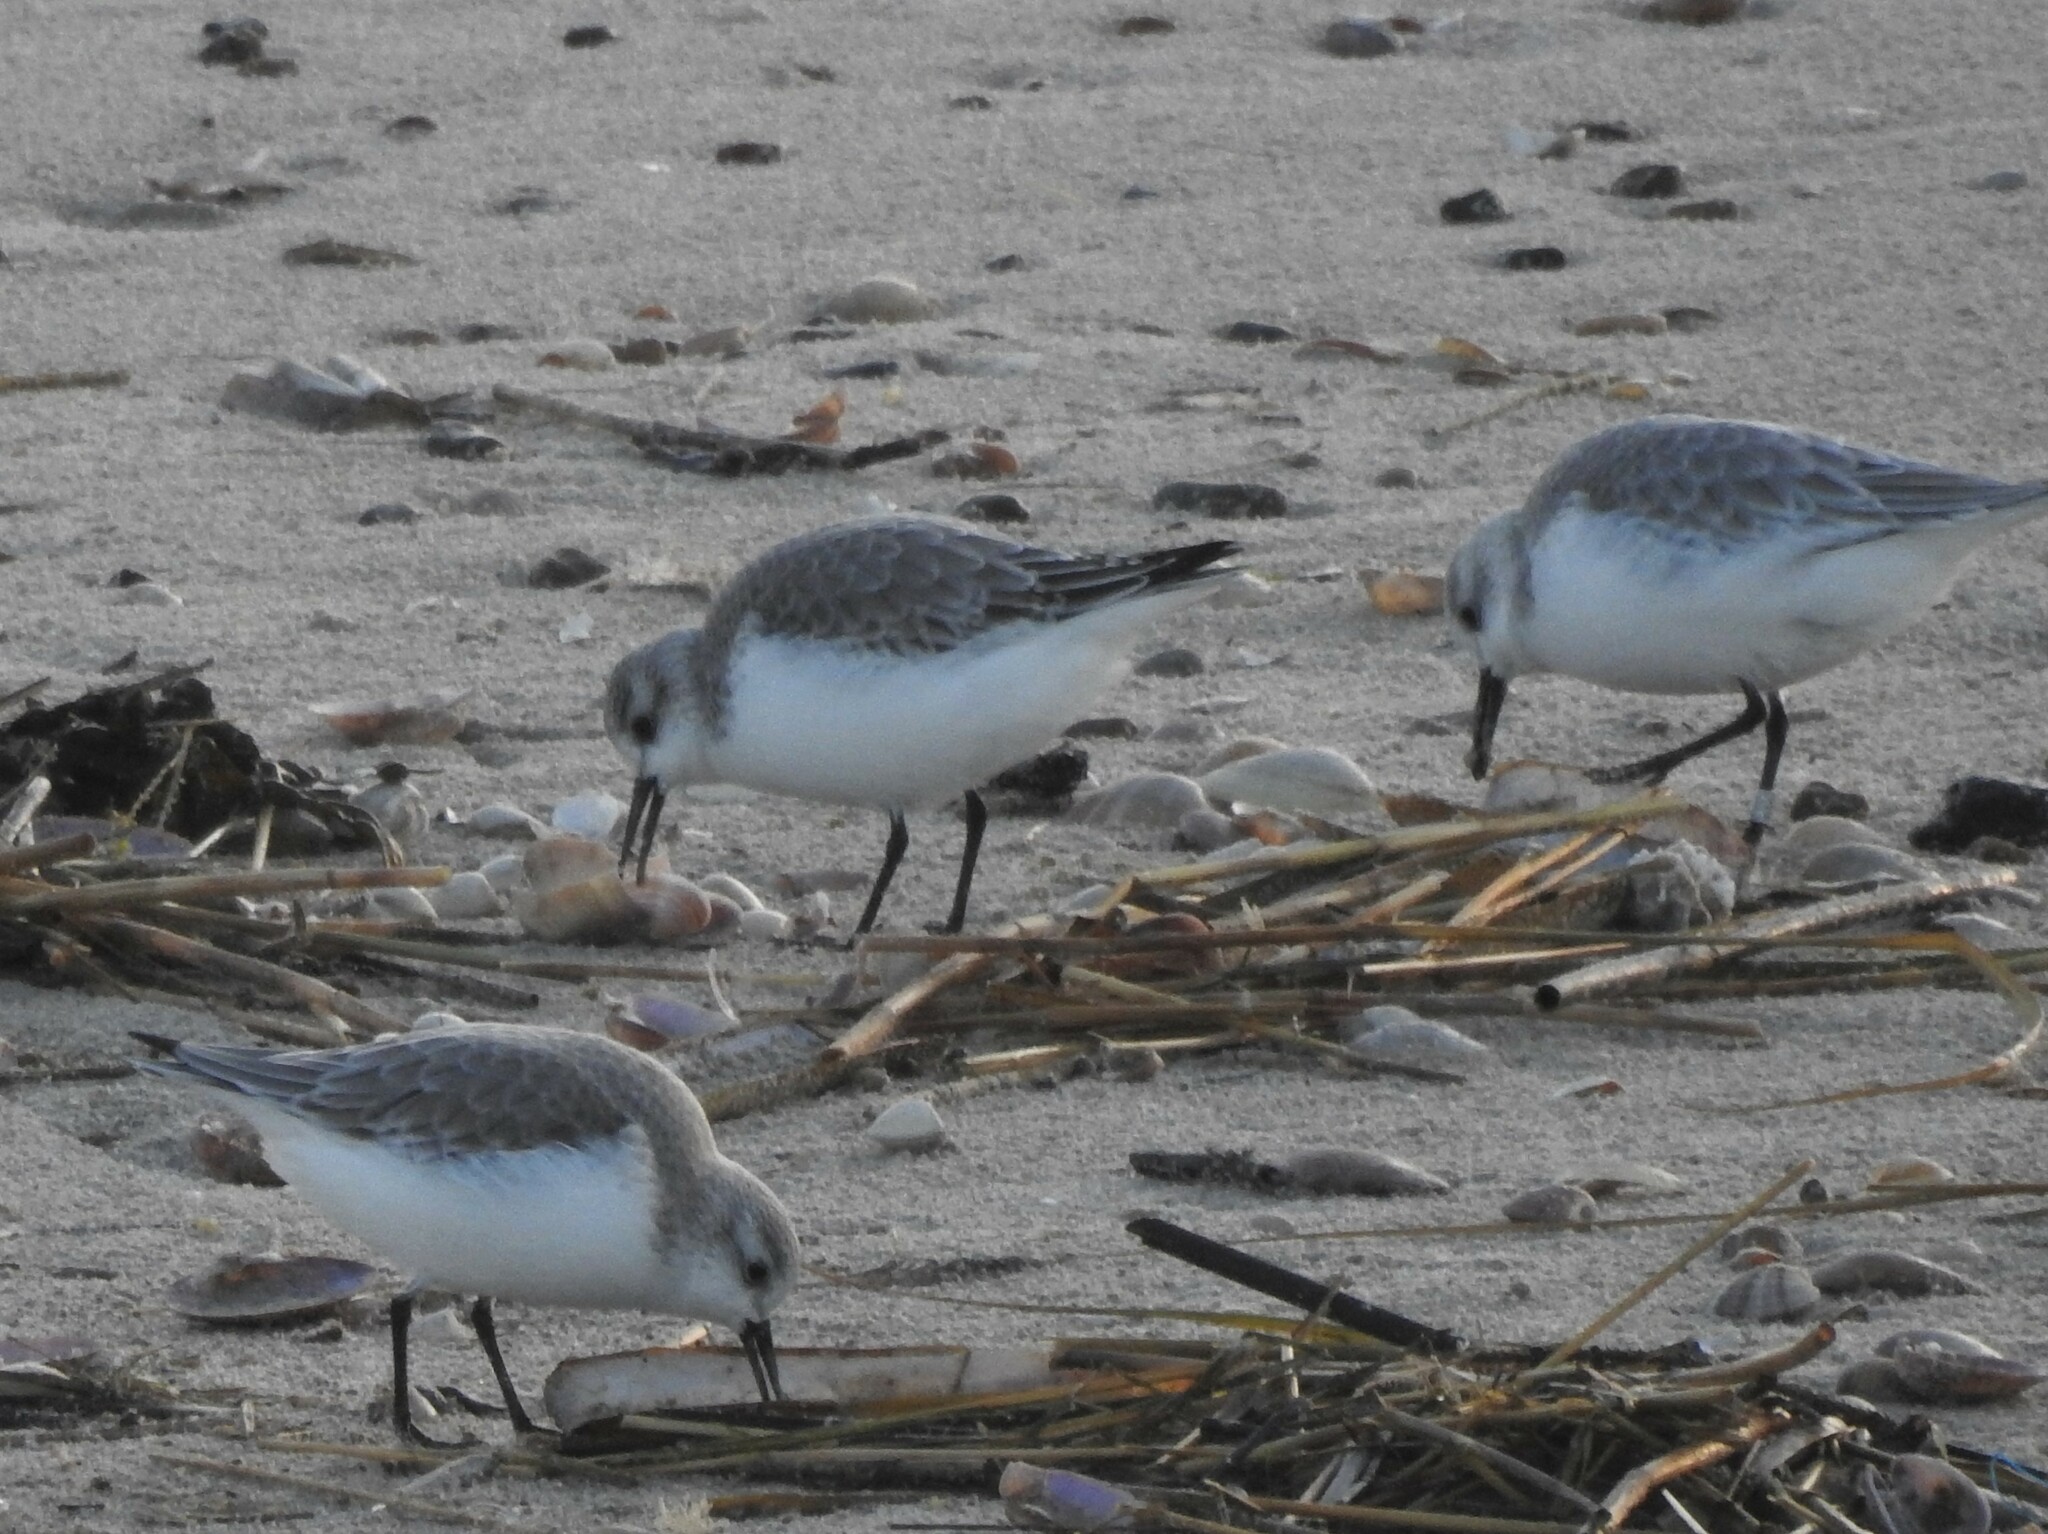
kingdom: Animalia
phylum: Chordata
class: Aves
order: Charadriiformes
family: Scolopacidae
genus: Calidris
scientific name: Calidris alba
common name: Sanderling
